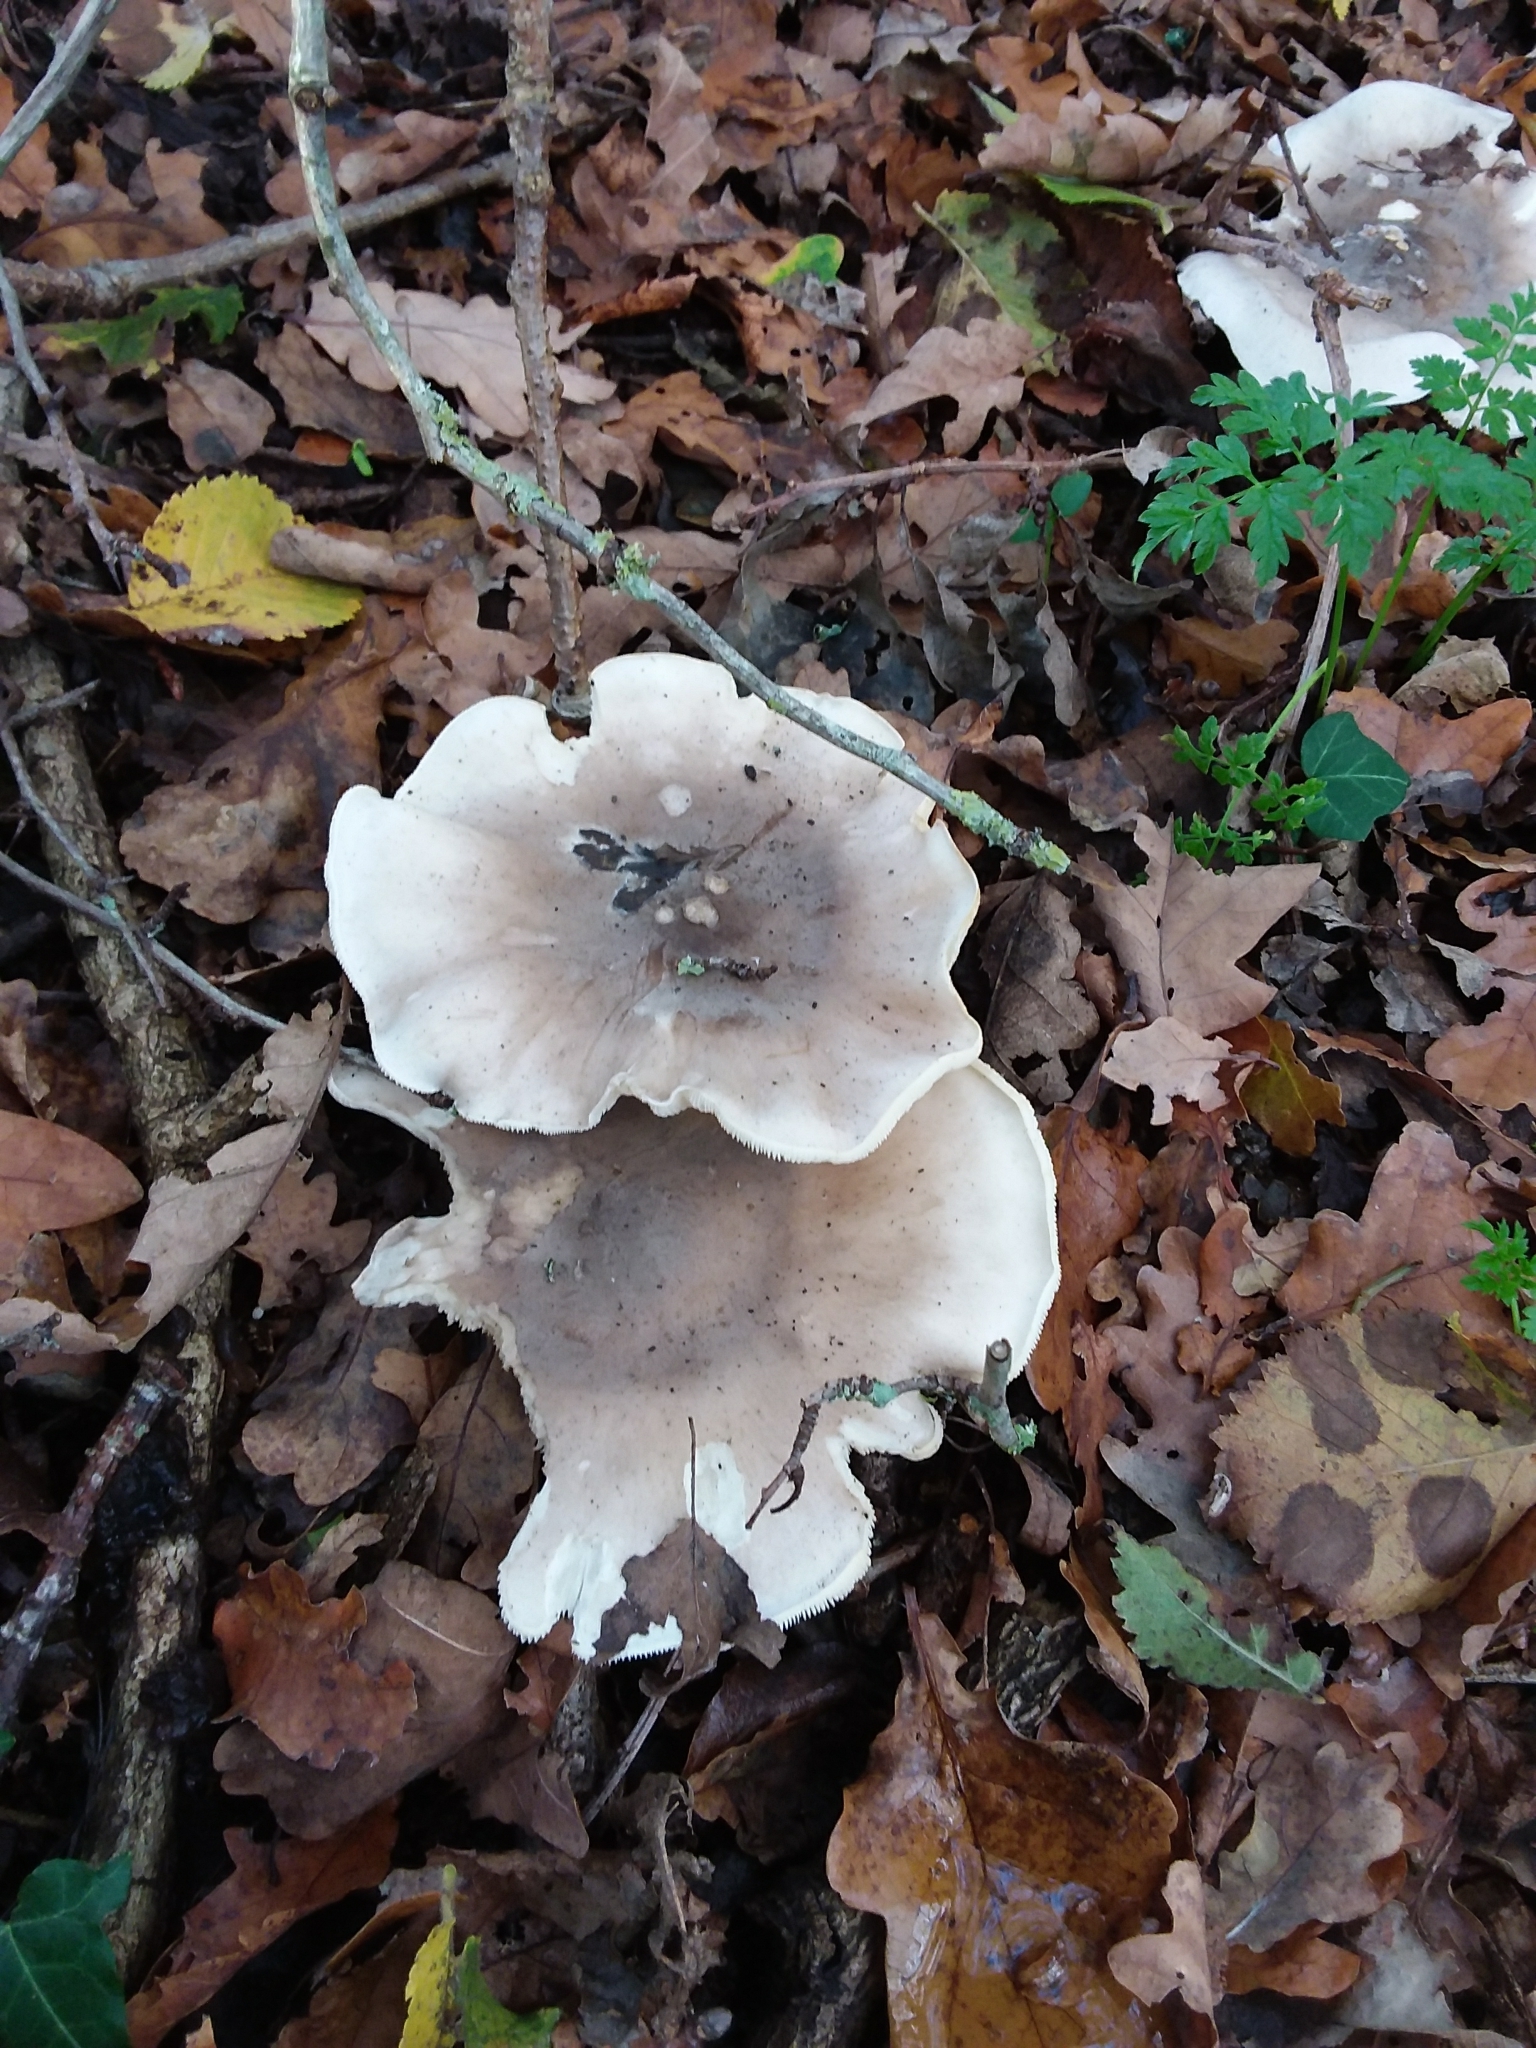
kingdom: Fungi
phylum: Basidiomycota
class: Agaricomycetes
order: Agaricales
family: Tricholomataceae
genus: Clitocybe
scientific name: Clitocybe nebularis
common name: Clouded agaric
